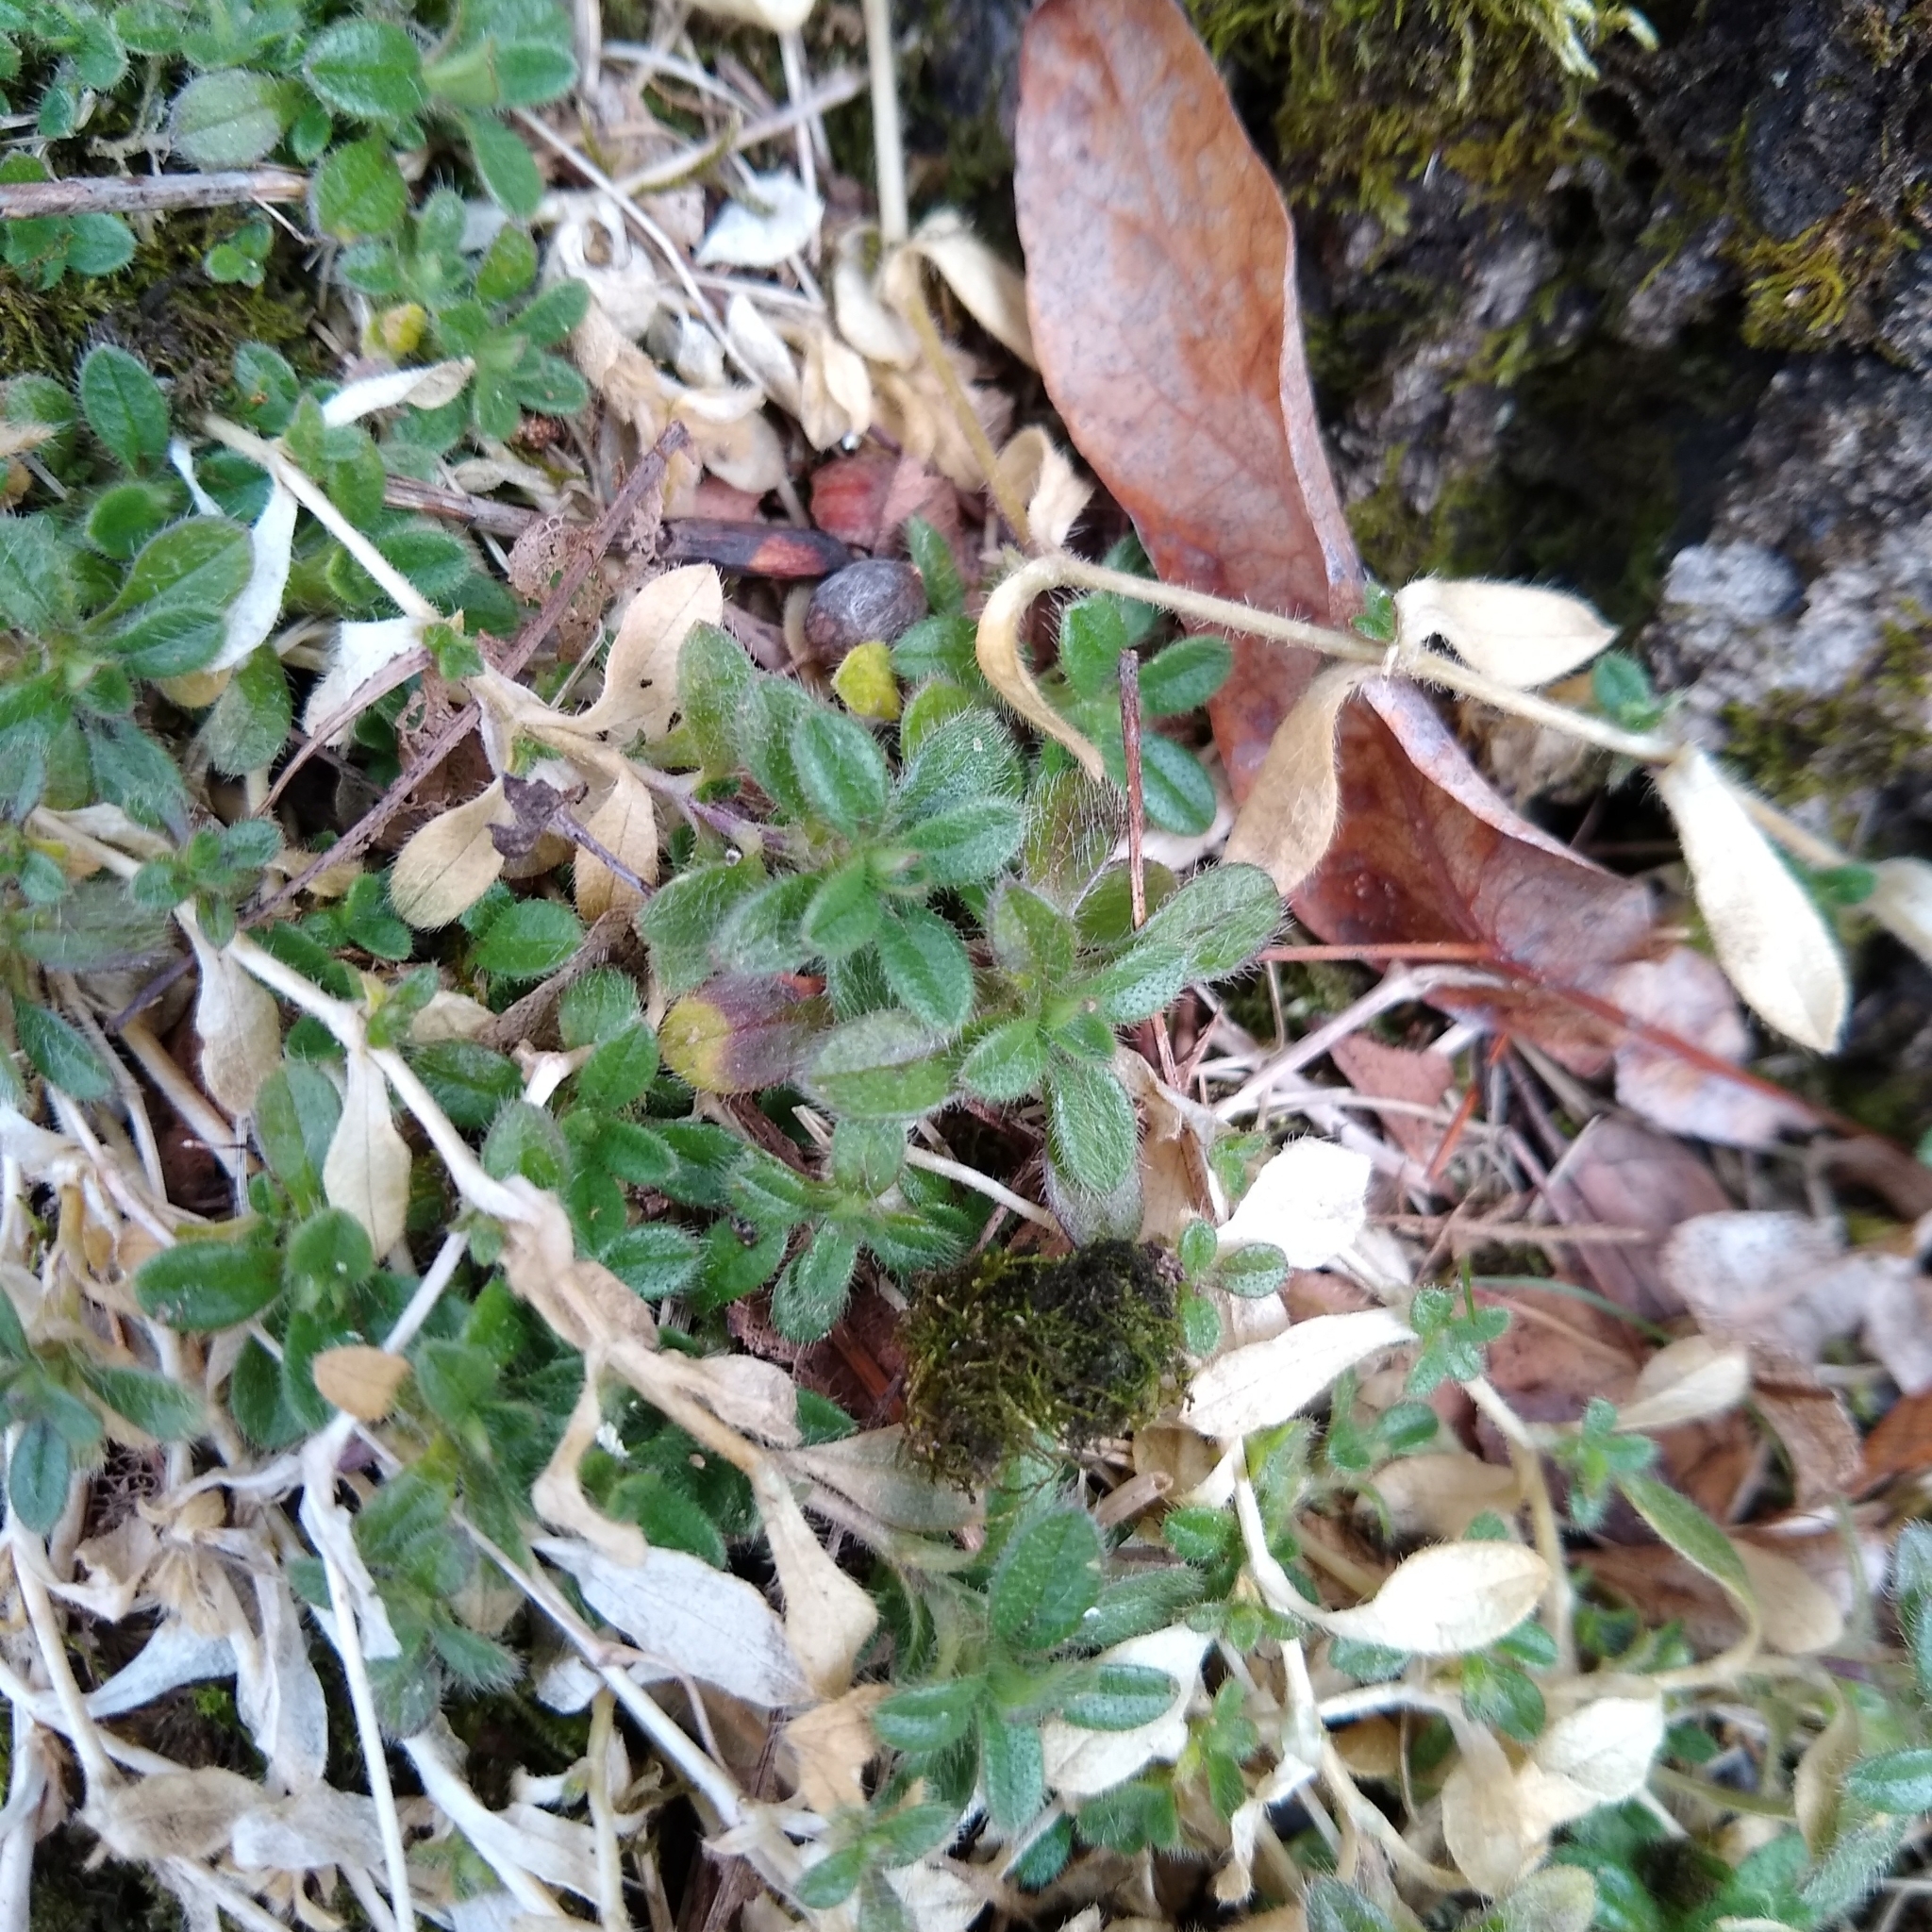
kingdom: Plantae
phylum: Tracheophyta
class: Magnoliopsida
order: Caryophyllales
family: Caryophyllaceae
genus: Cerastium
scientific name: Cerastium fontanum
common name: Common mouse-ear
